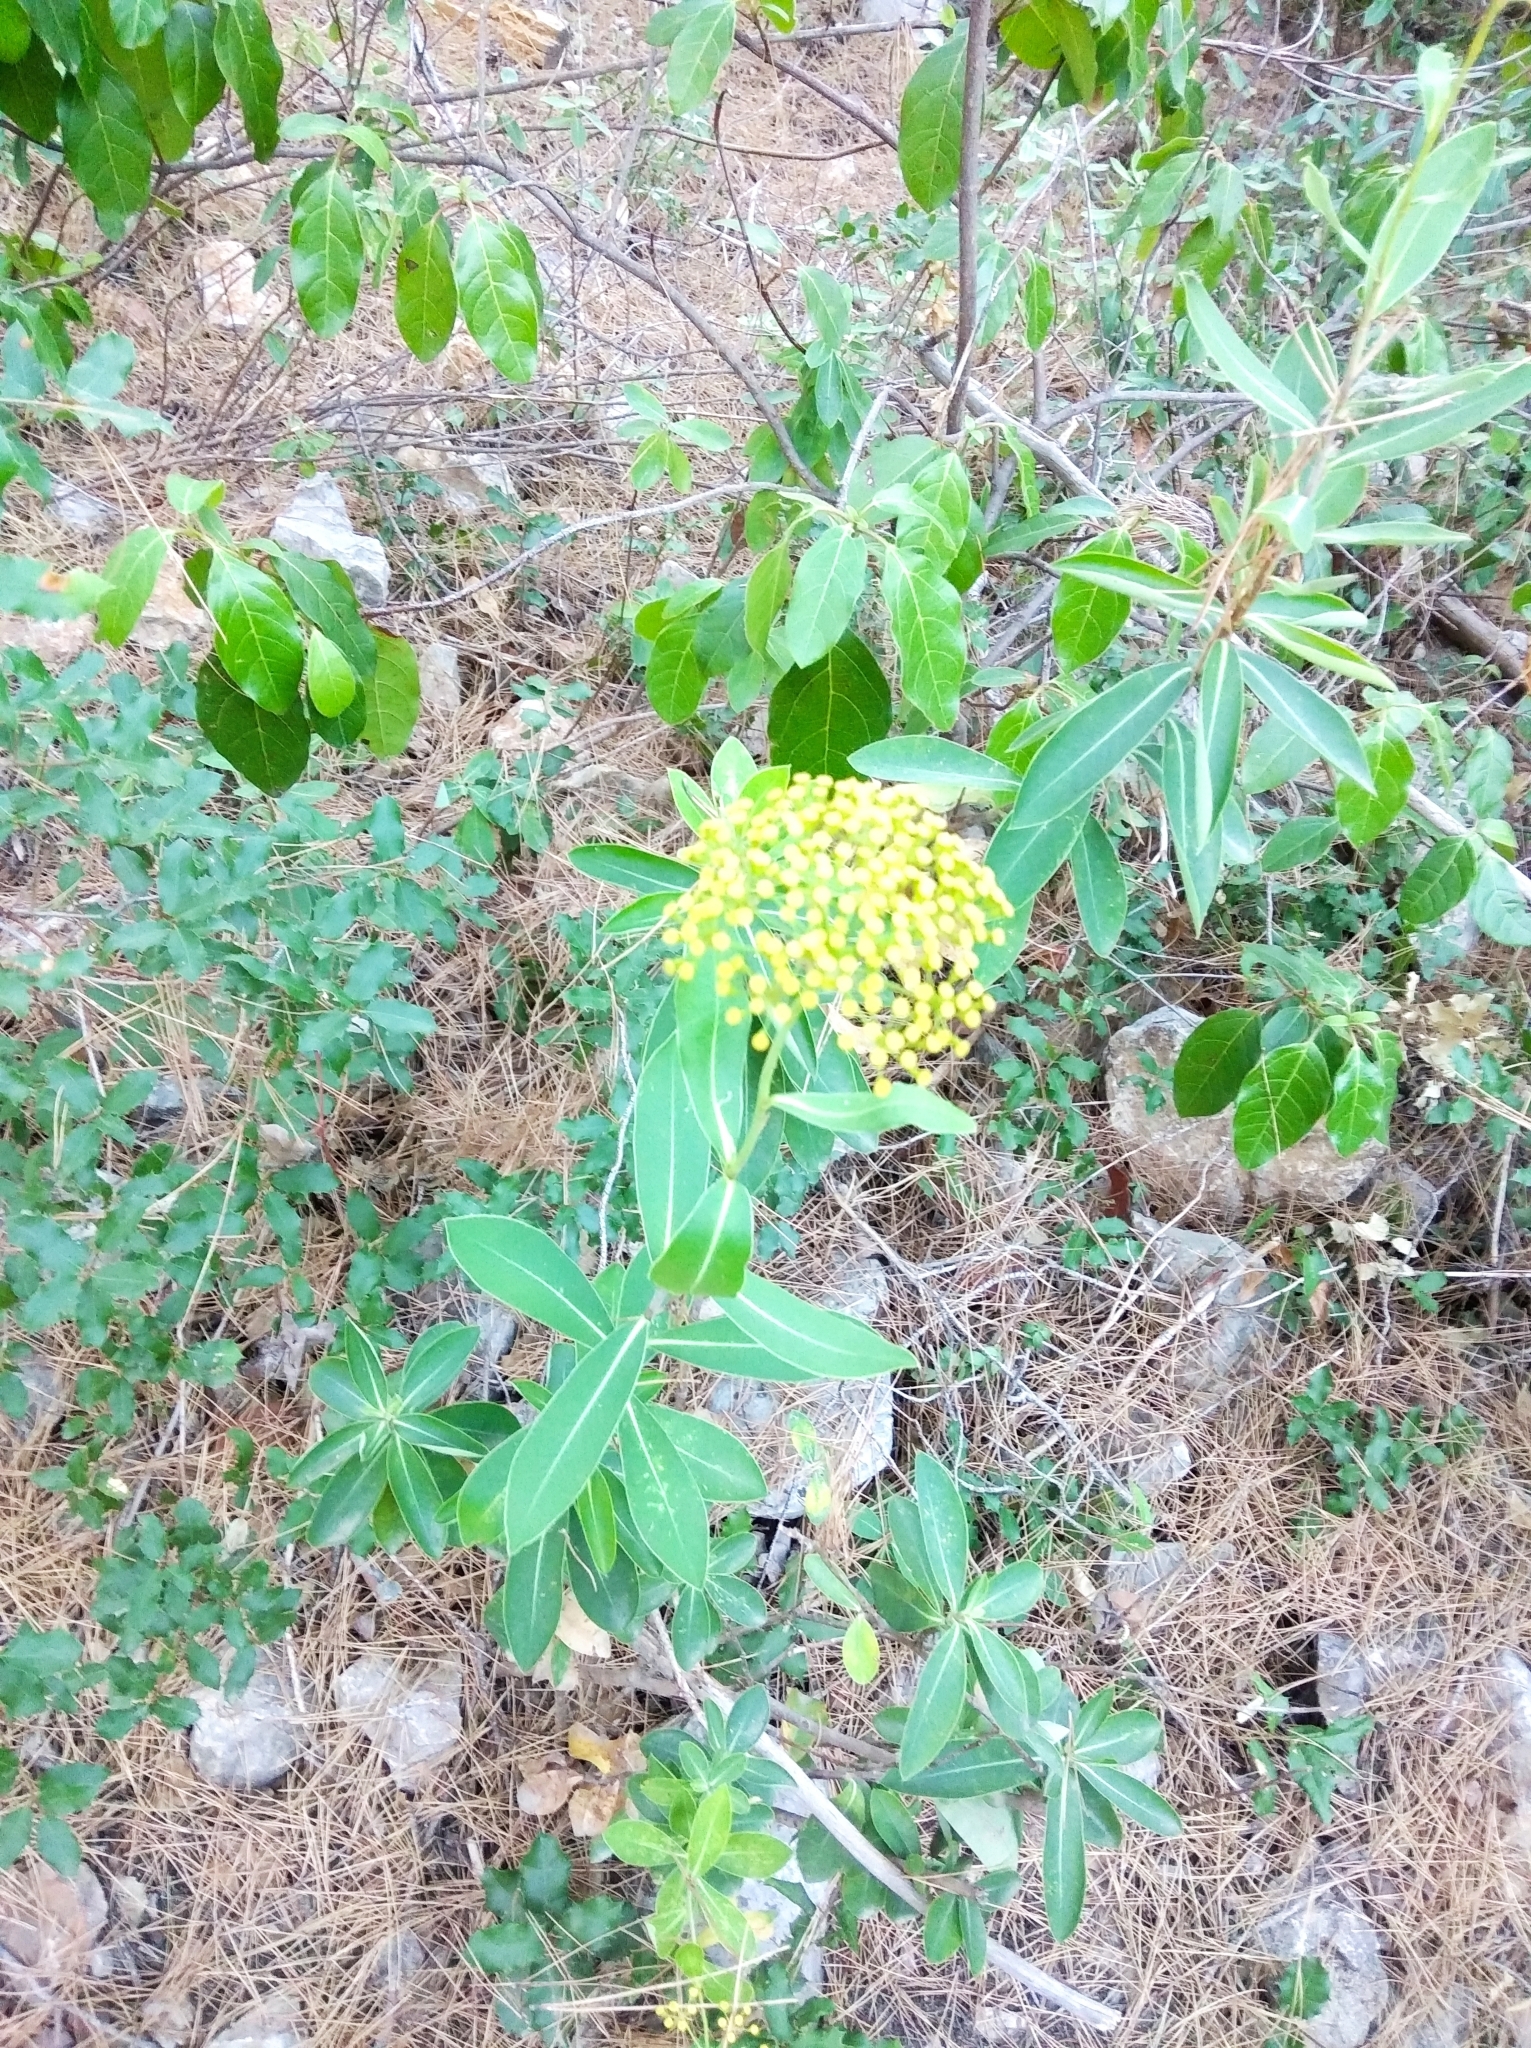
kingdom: Plantae
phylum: Tracheophyta
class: Magnoliopsida
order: Apiales
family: Apiaceae
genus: Bupleurum
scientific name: Bupleurum fruticosum
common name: Shrubby hare's-ear
